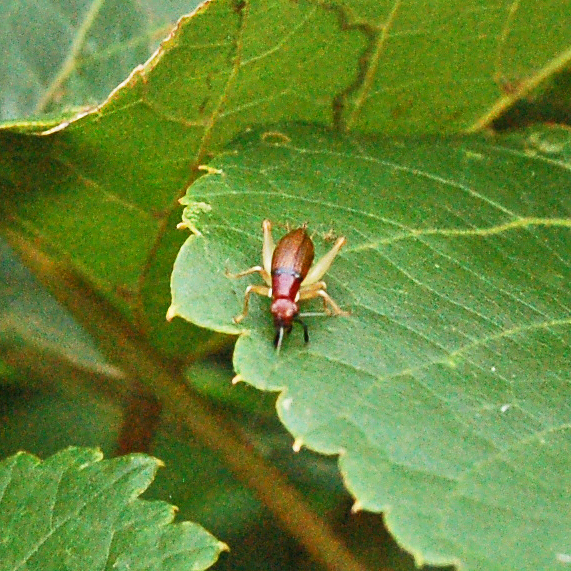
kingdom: Animalia
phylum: Arthropoda
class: Insecta
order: Orthoptera
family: Trigonidiidae
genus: Phyllopalpus
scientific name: Phyllopalpus pulchellus
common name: Handsome trig
